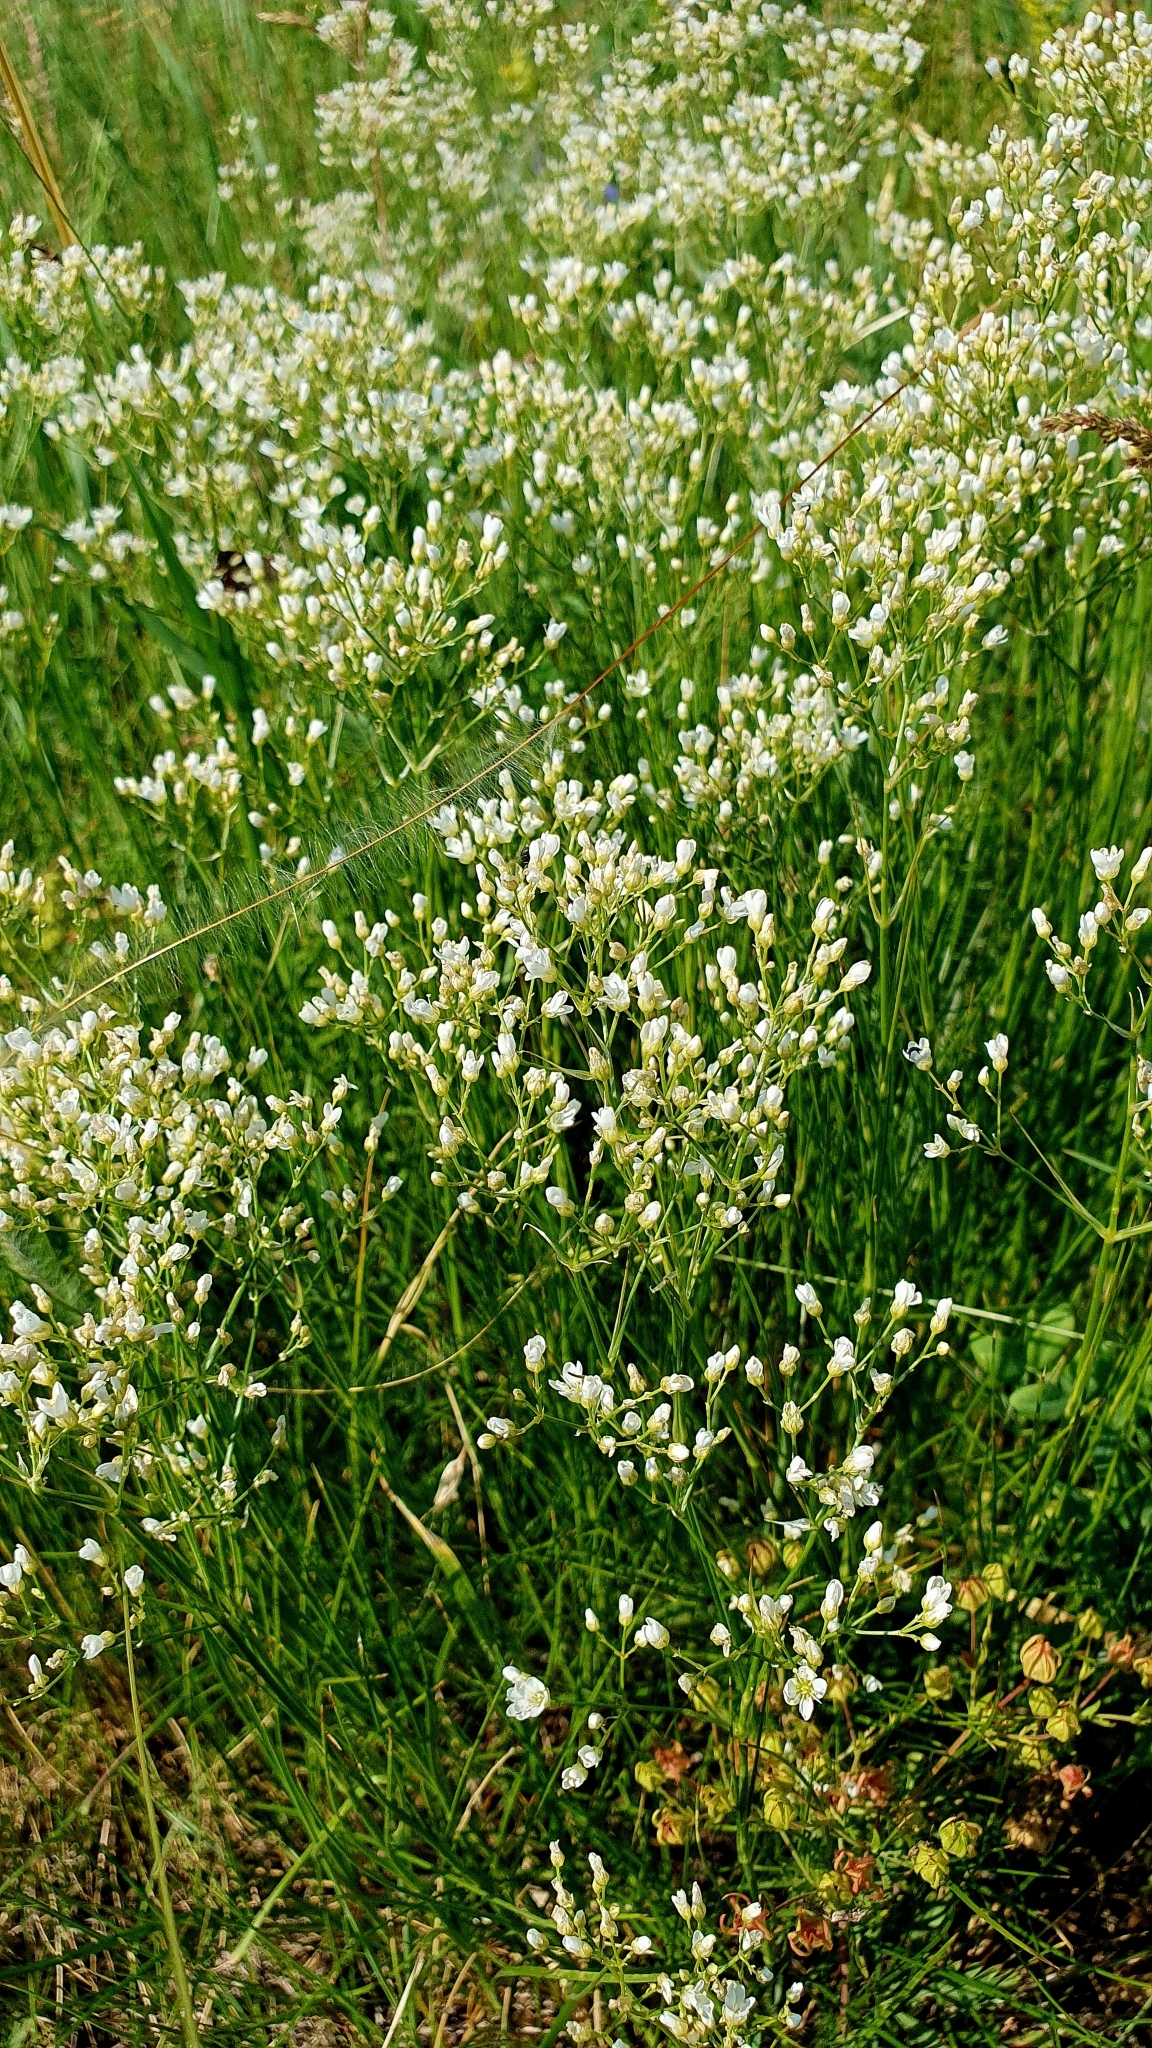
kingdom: Plantae
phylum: Tracheophyta
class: Magnoliopsida
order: Caryophyllales
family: Caryophyllaceae
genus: Eremogone
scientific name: Eremogone longifolia
